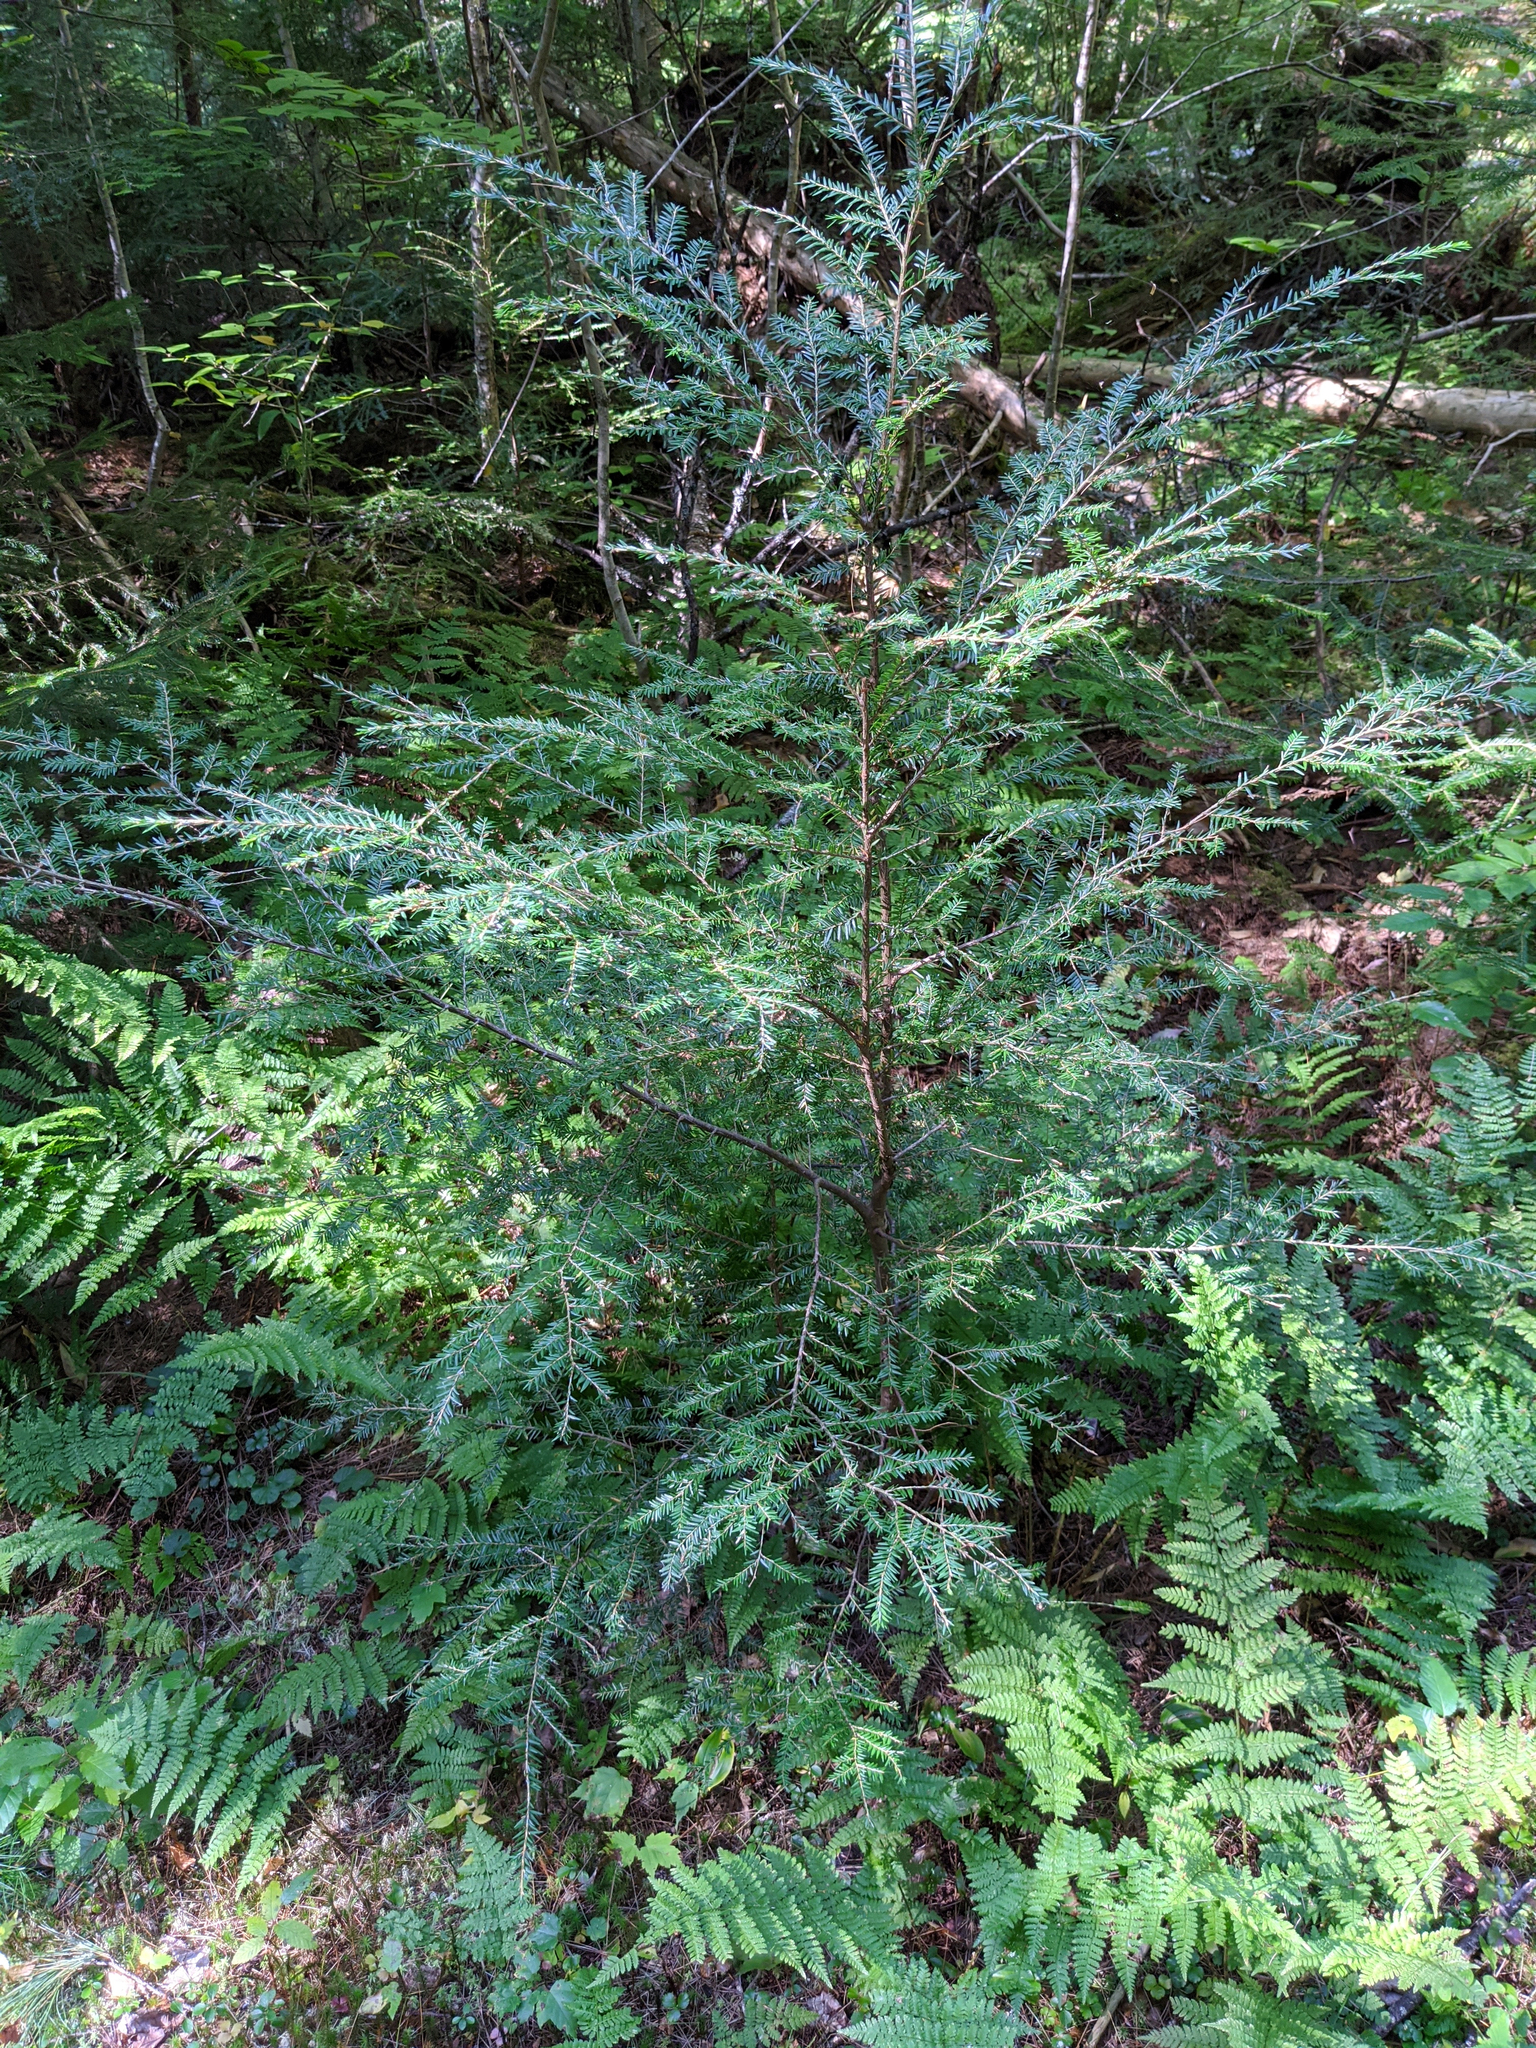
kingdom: Plantae
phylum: Tracheophyta
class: Pinopsida
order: Pinales
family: Pinaceae
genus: Tsuga
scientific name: Tsuga canadensis
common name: Eastern hemlock
